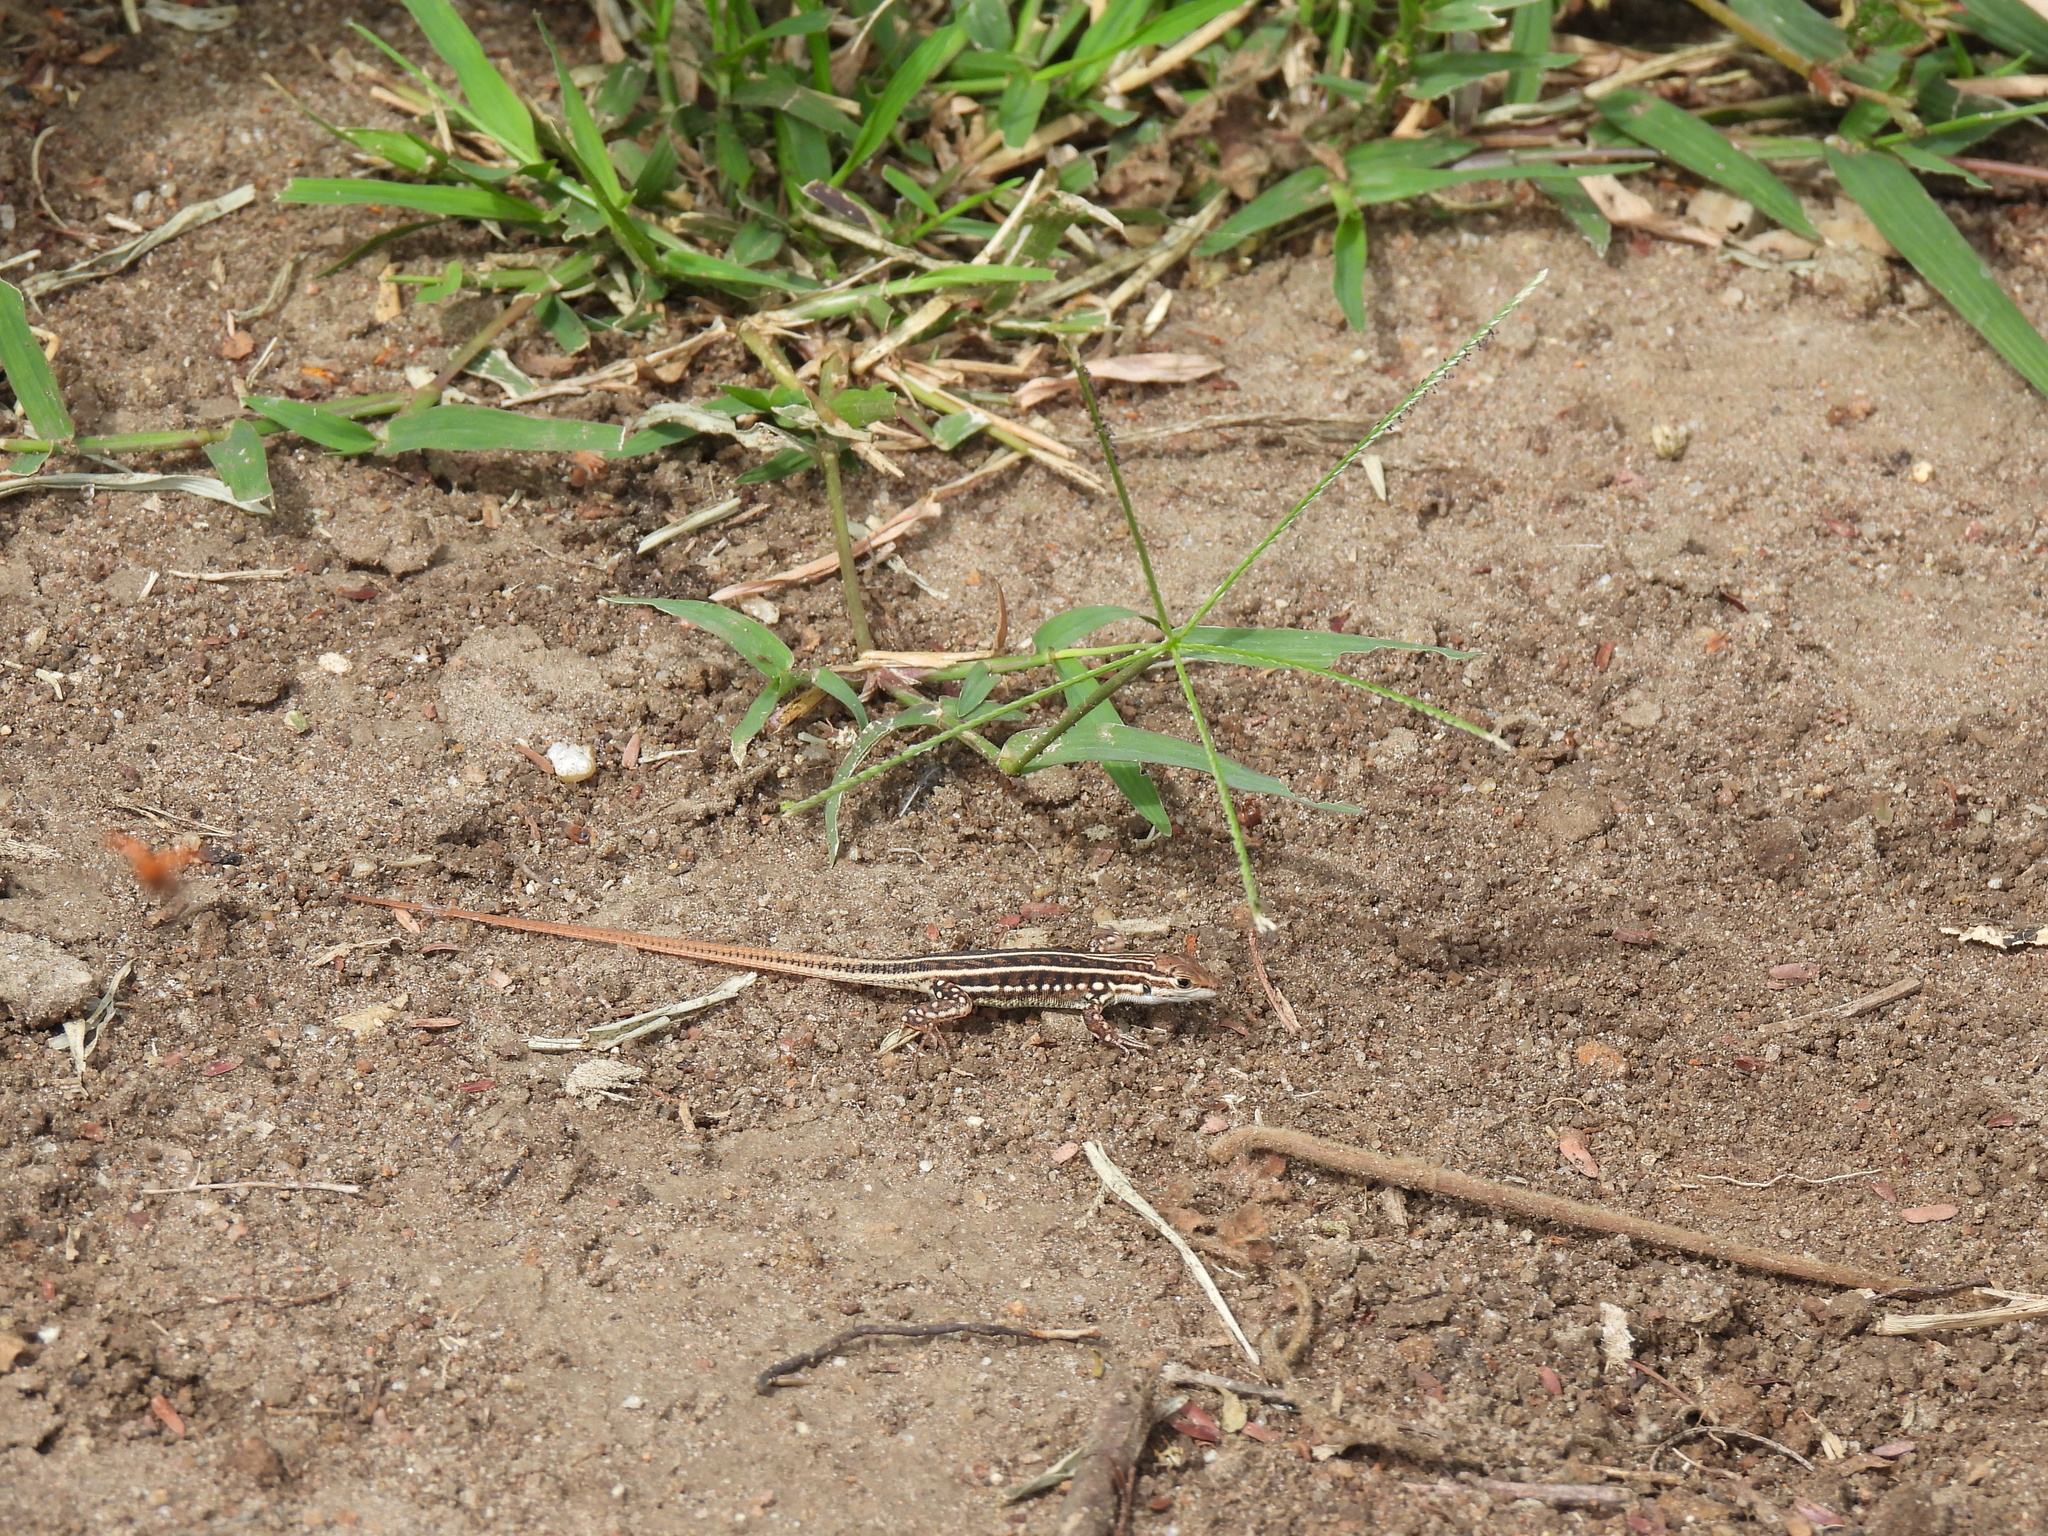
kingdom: Animalia
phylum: Chordata
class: Squamata
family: Lacertidae
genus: Heliobolus
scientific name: Heliobolus spekii
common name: Speke’s sand lizard
